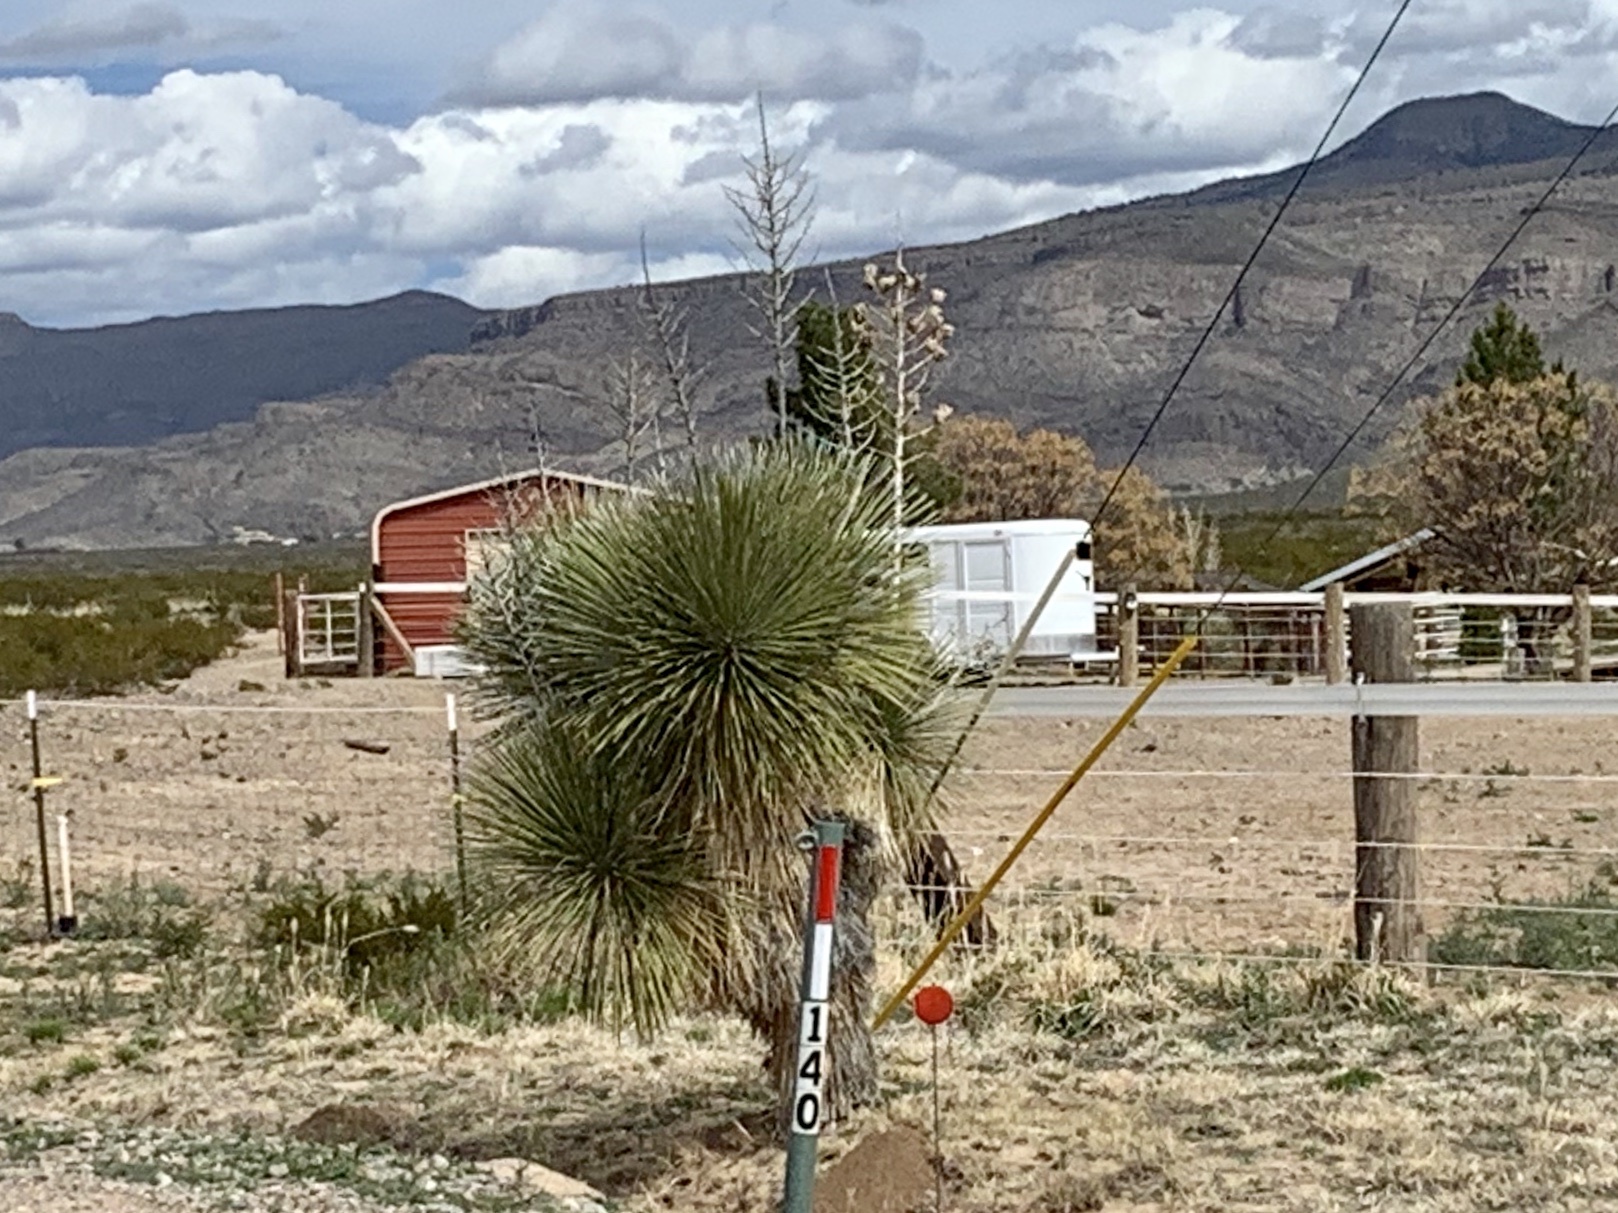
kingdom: Plantae
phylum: Tracheophyta
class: Liliopsida
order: Asparagales
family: Asparagaceae
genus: Yucca
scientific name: Yucca elata
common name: Palmella
